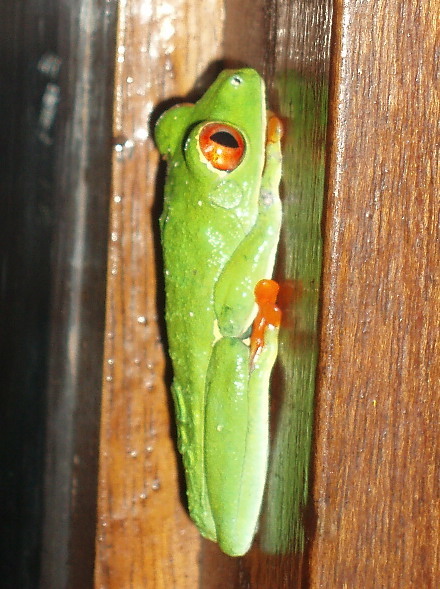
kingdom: Animalia
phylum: Chordata
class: Amphibia
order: Anura
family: Phyllomedusidae
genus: Agalychnis
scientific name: Agalychnis callidryas
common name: Red-eyed treefrog
